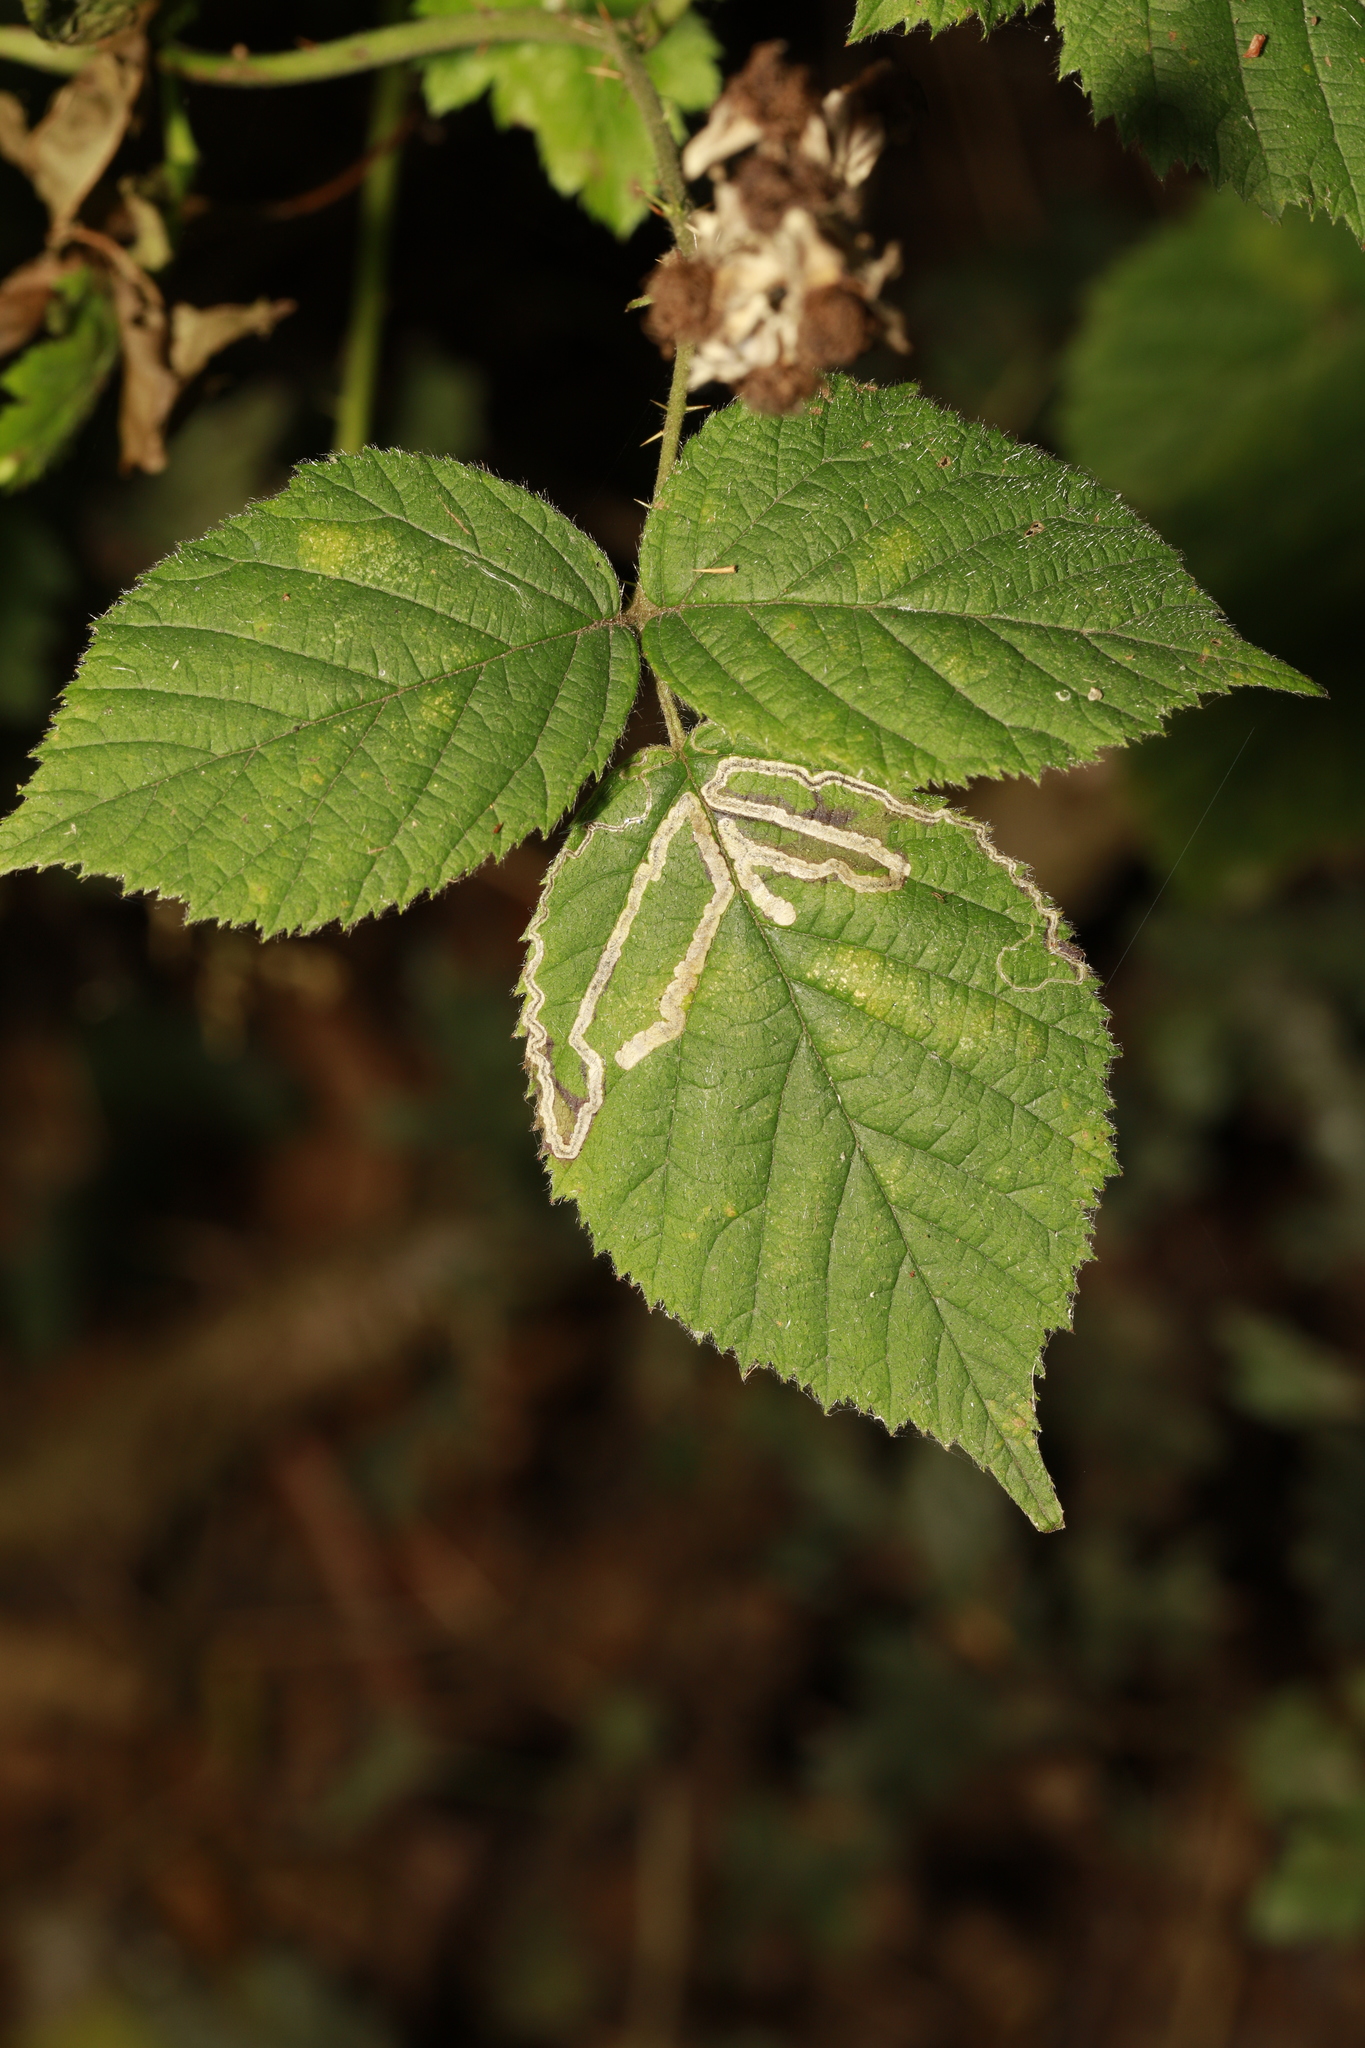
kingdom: Animalia
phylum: Arthropoda
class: Insecta
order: Lepidoptera
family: Nepticulidae
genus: Stigmella
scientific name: Stigmella aurella
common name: Golden pigmy
